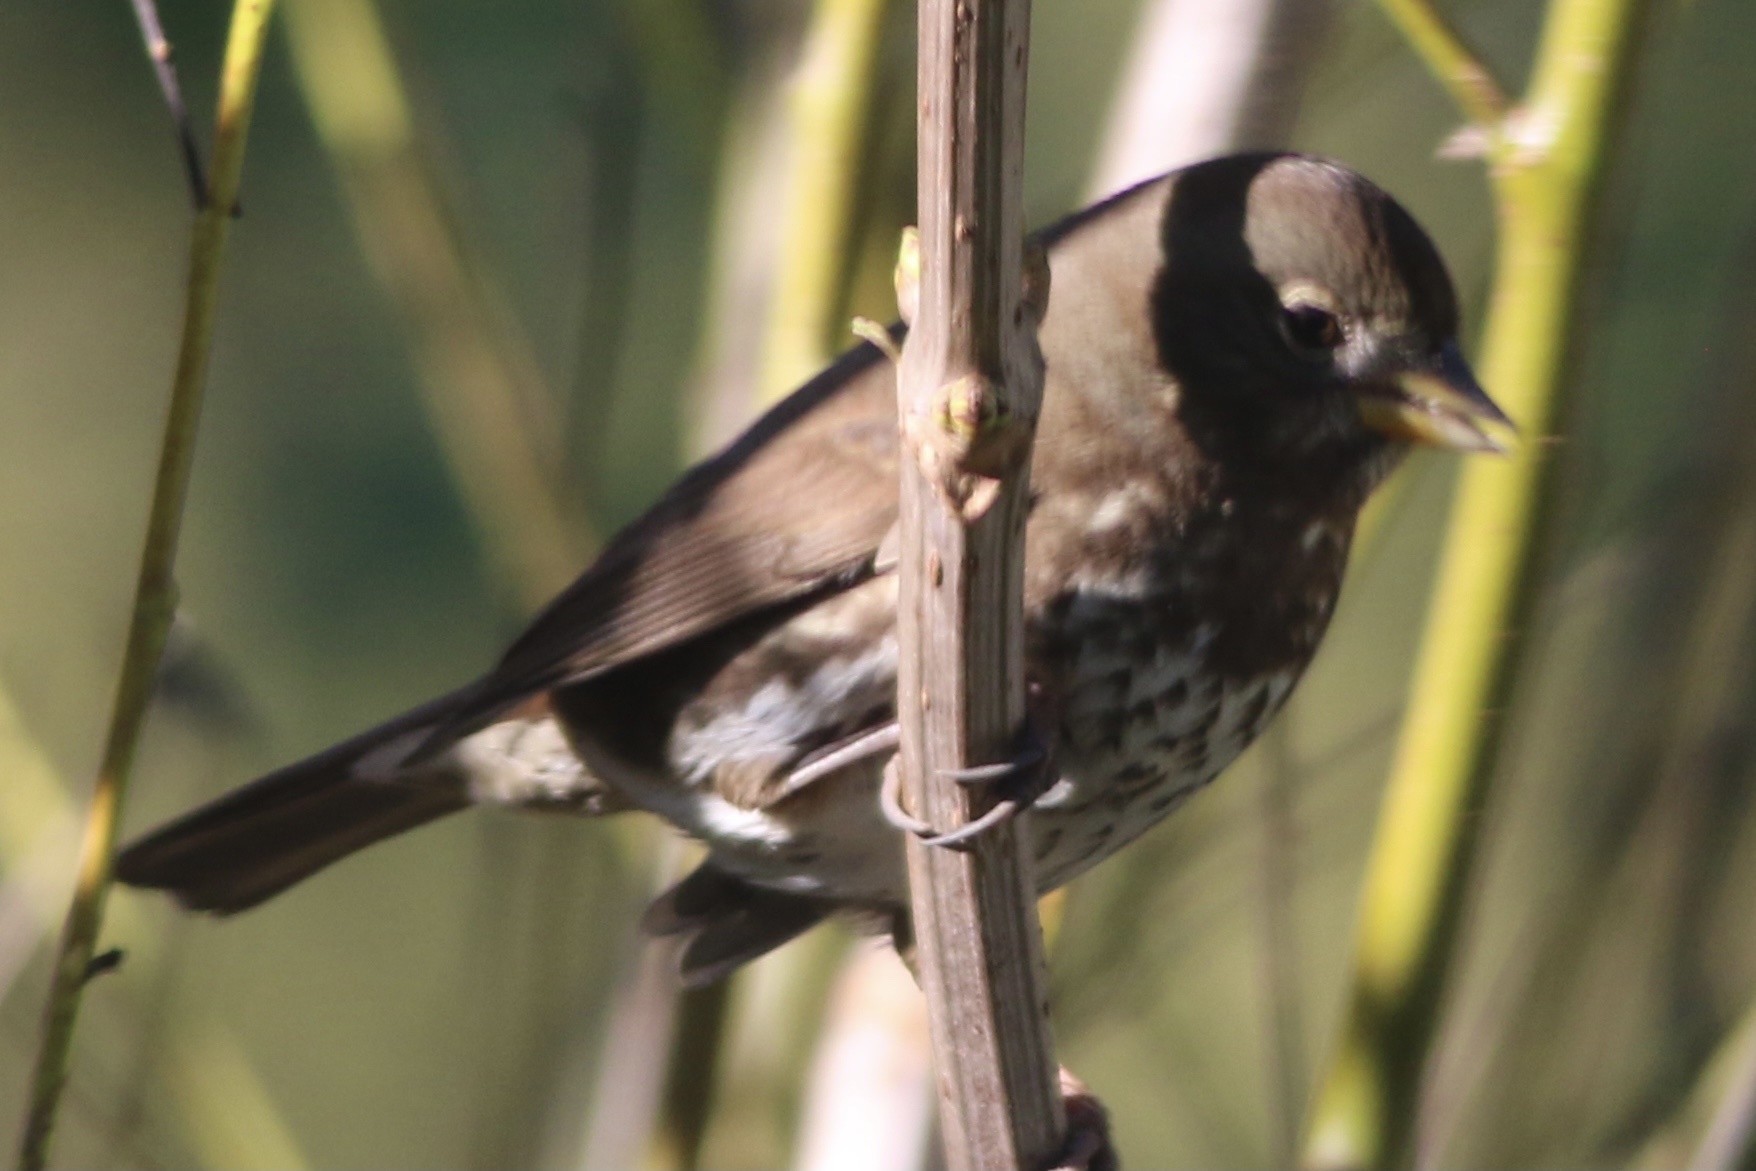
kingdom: Animalia
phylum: Chordata
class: Aves
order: Passeriformes
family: Passerellidae
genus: Passerella
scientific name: Passerella iliaca
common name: Fox sparrow
